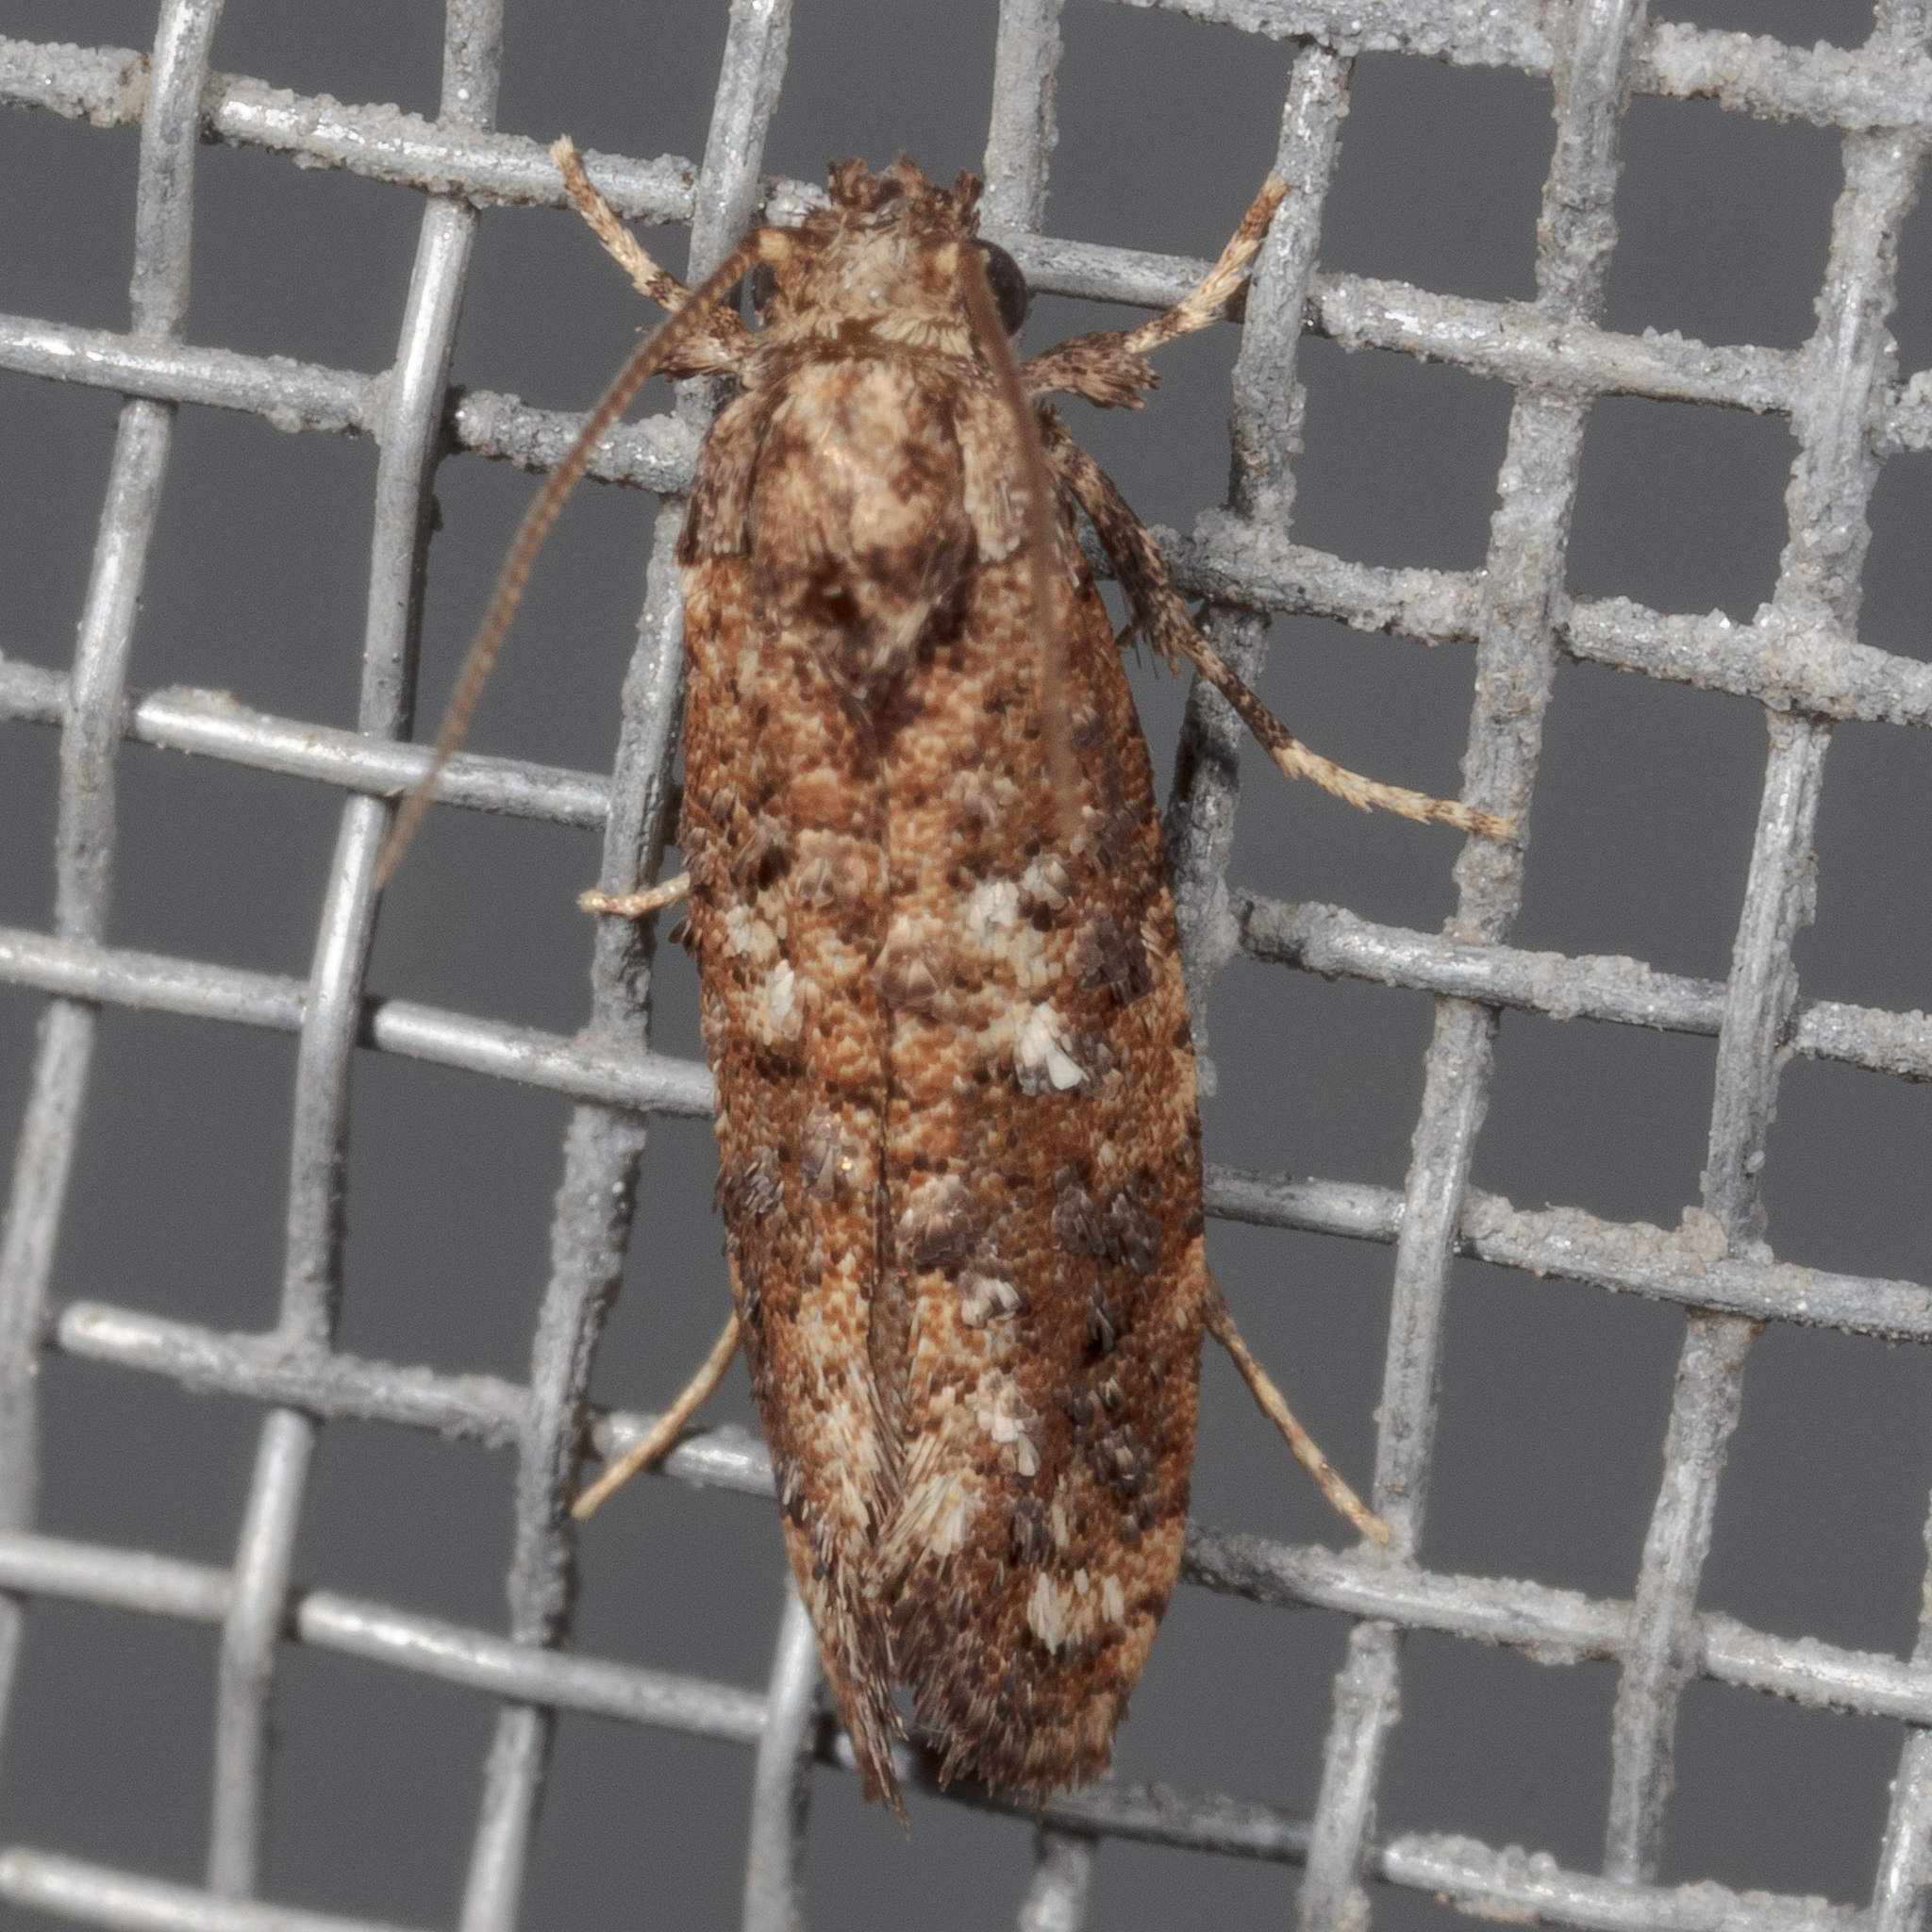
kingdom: Animalia
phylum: Arthropoda
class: Insecta
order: Lepidoptera
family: Tineidae
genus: Acrolophus
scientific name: Acrolophus cressoni
